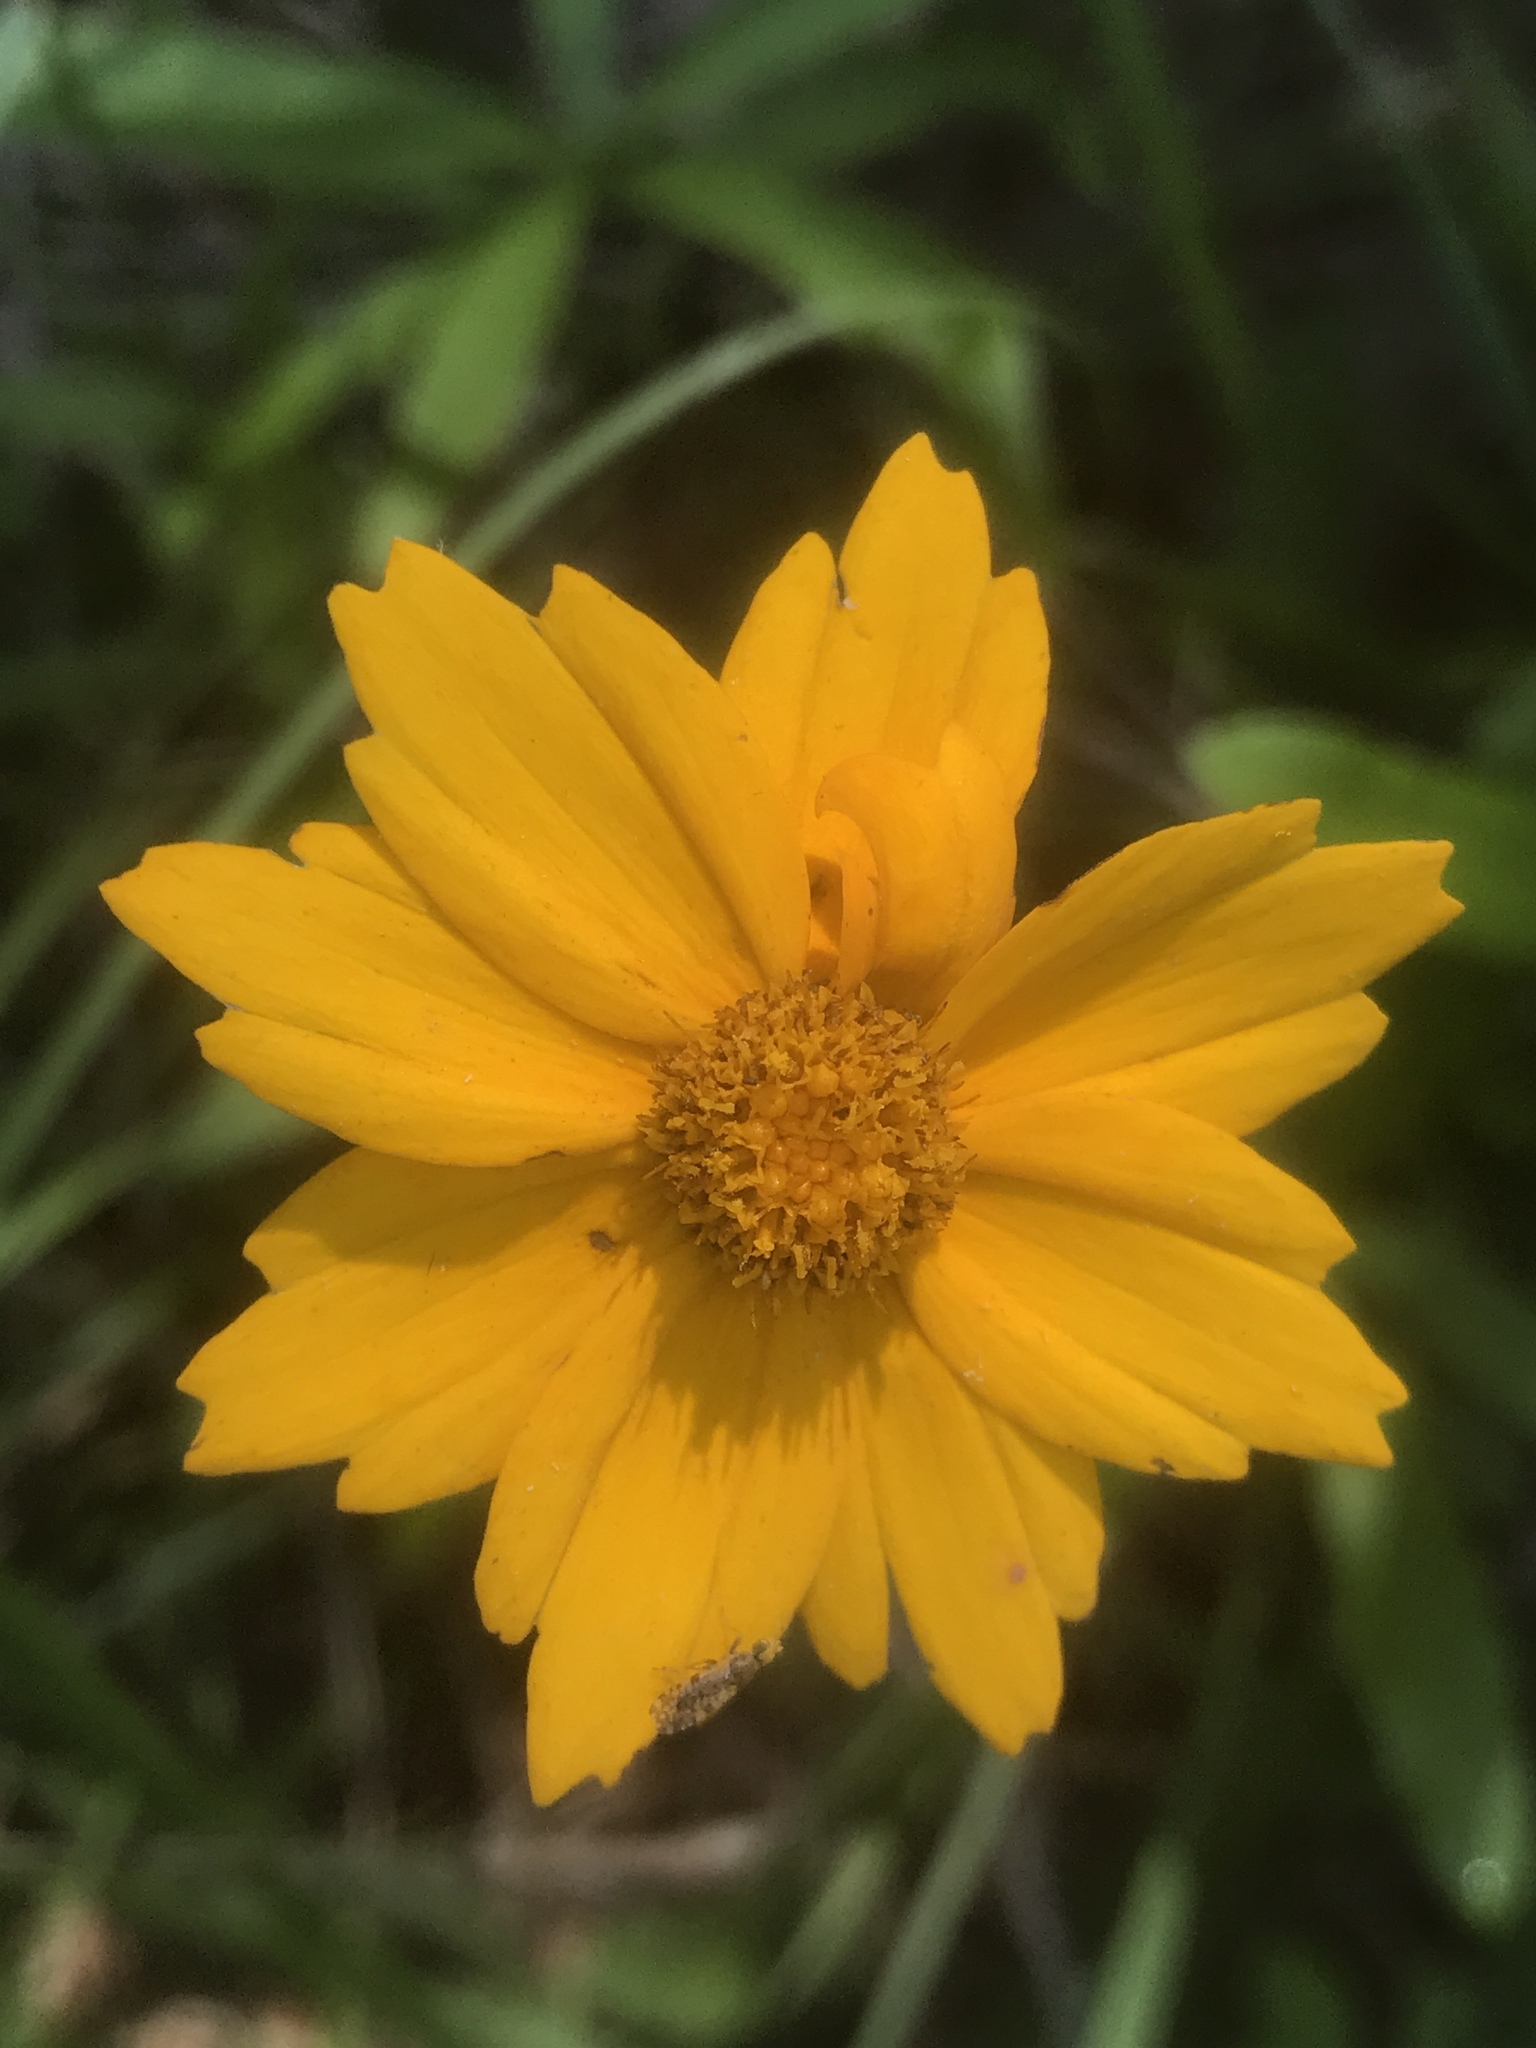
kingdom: Plantae
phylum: Tracheophyta
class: Magnoliopsida
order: Asterales
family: Asteraceae
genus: Coreopsis
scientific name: Coreopsis auriculata
